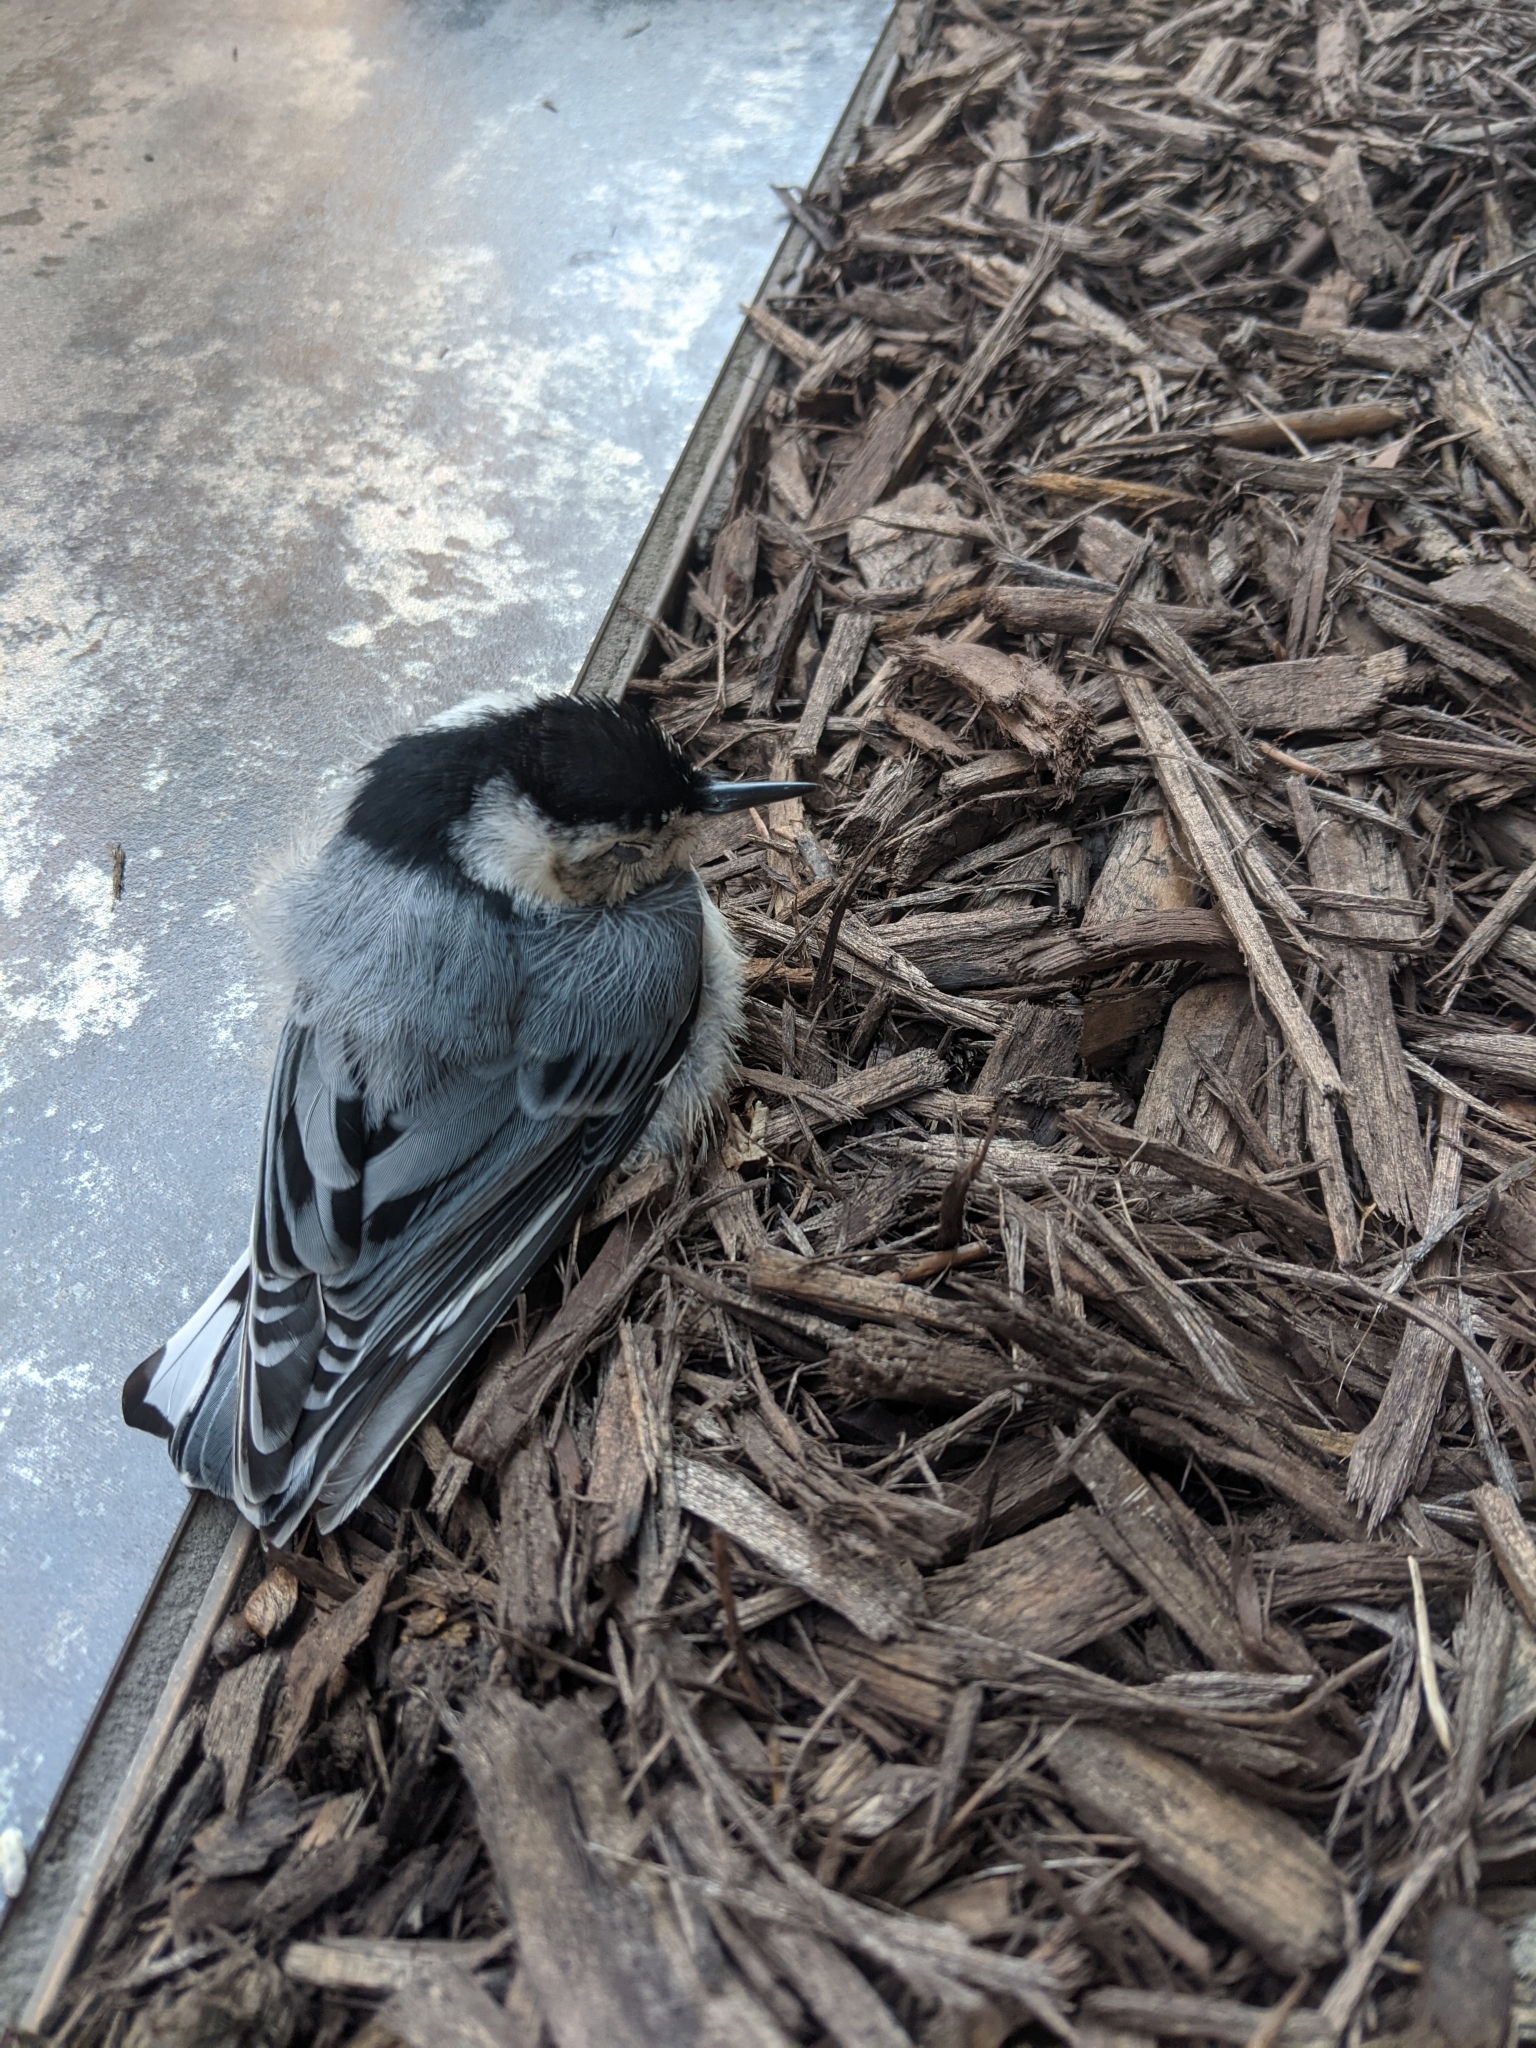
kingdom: Animalia
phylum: Chordata
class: Aves
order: Passeriformes
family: Sittidae
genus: Sitta
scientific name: Sitta carolinensis
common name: White-breasted nuthatch
